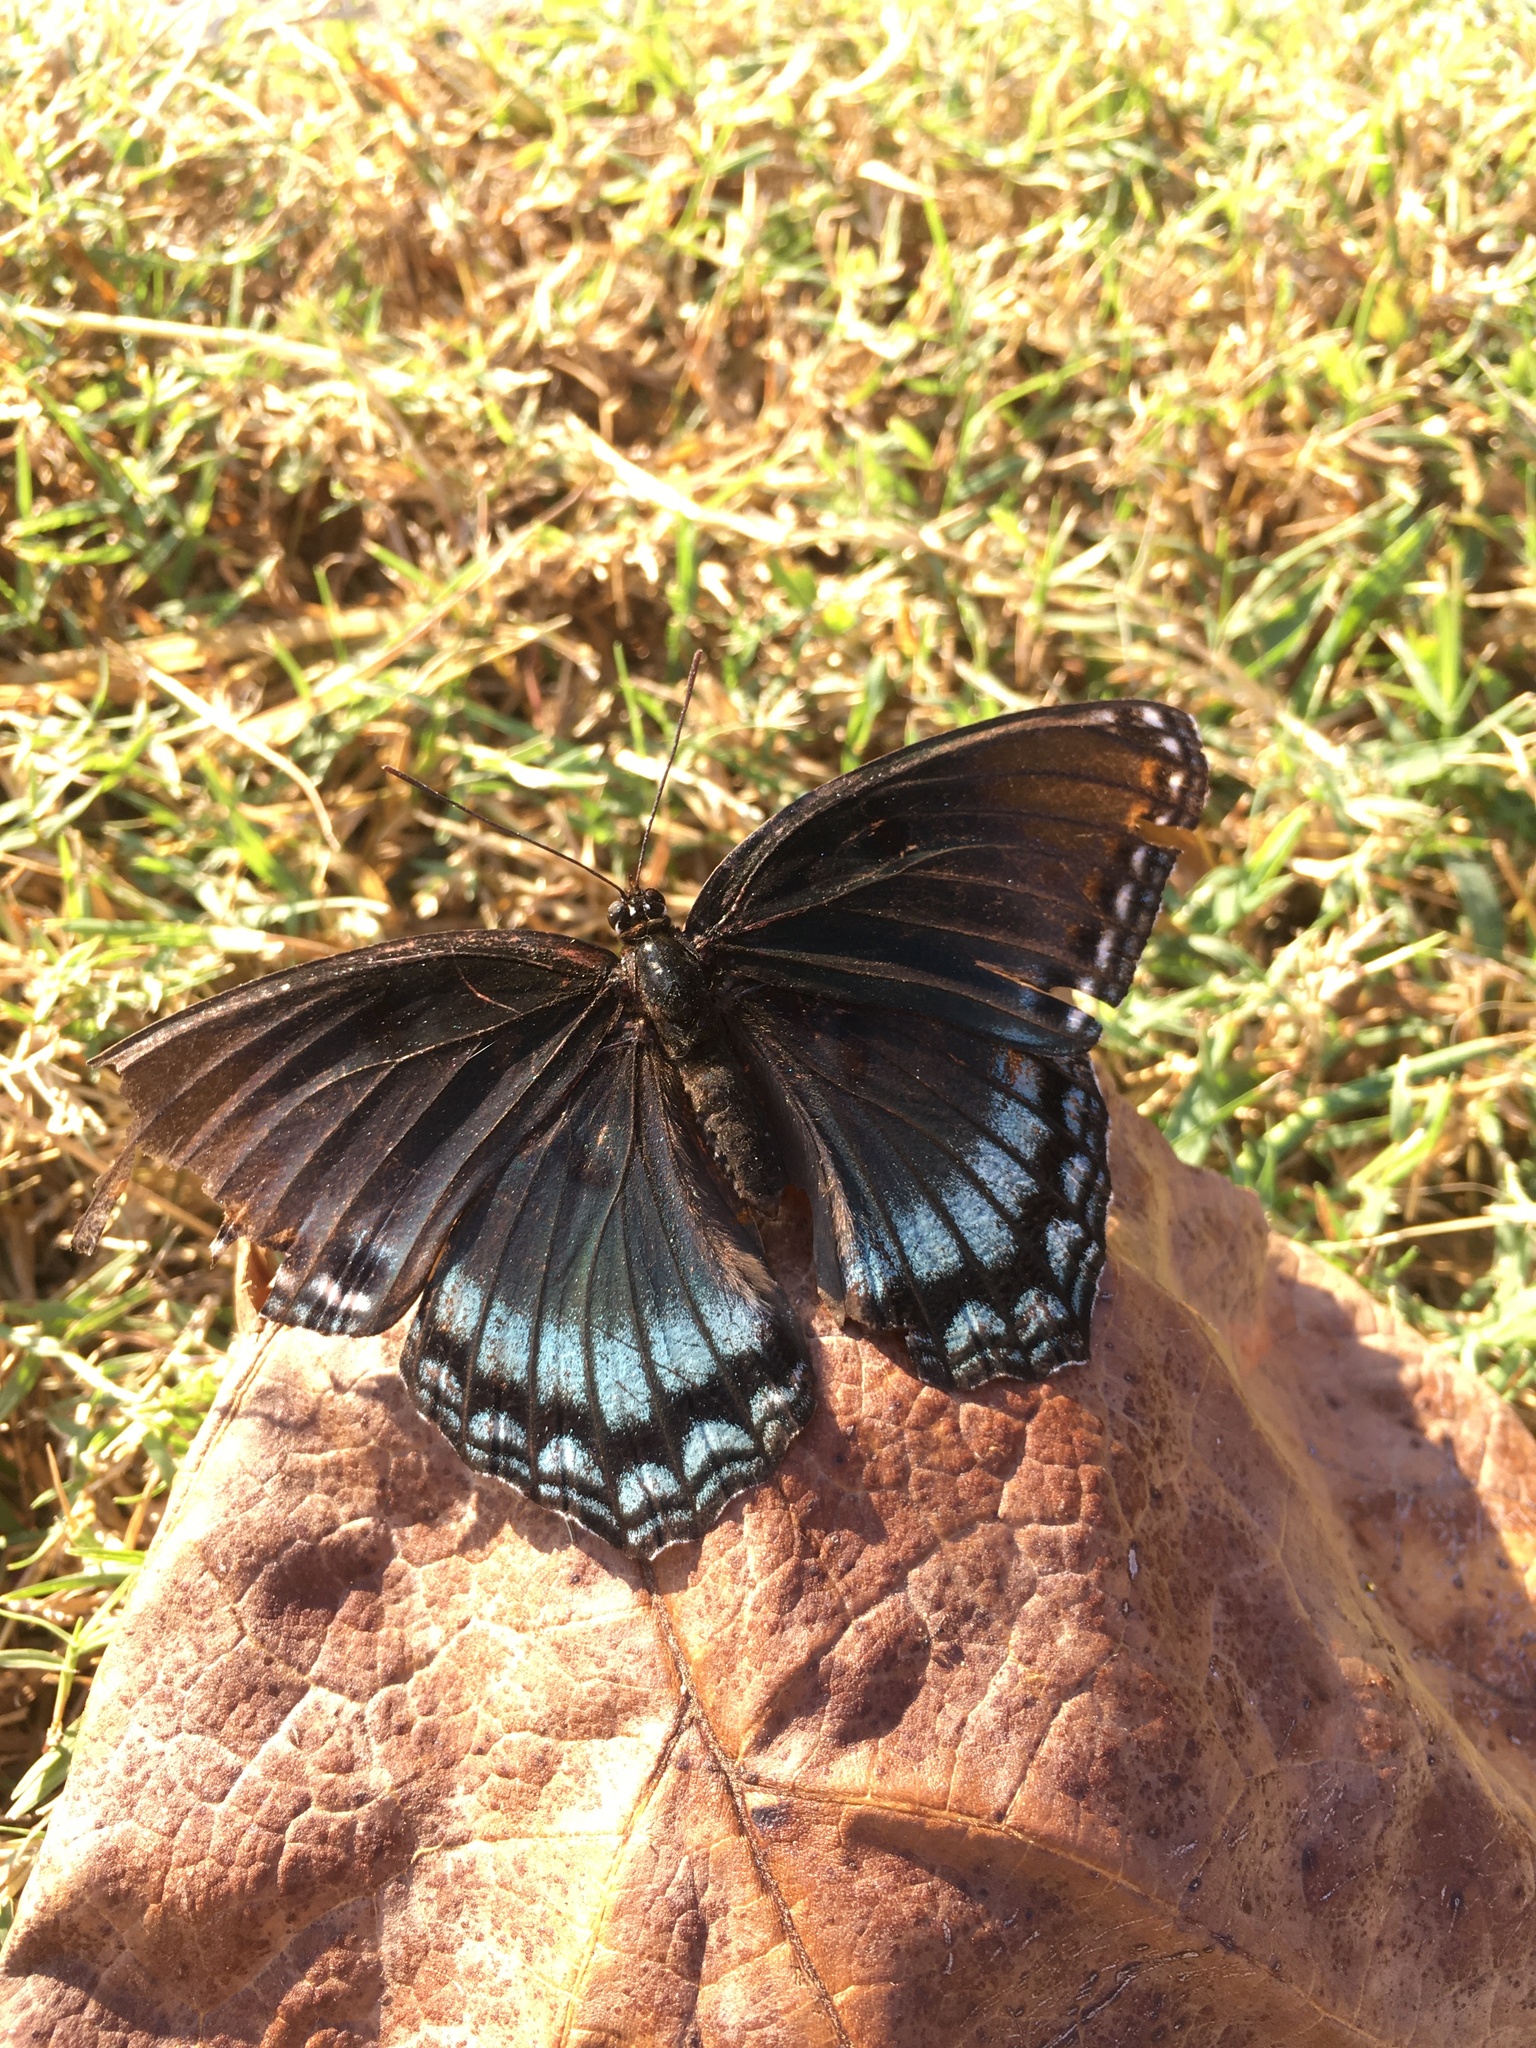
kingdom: Animalia
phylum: Arthropoda
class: Insecta
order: Lepidoptera
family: Nymphalidae
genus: Limenitis
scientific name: Limenitis arthemis
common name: Red-spotted admiral
